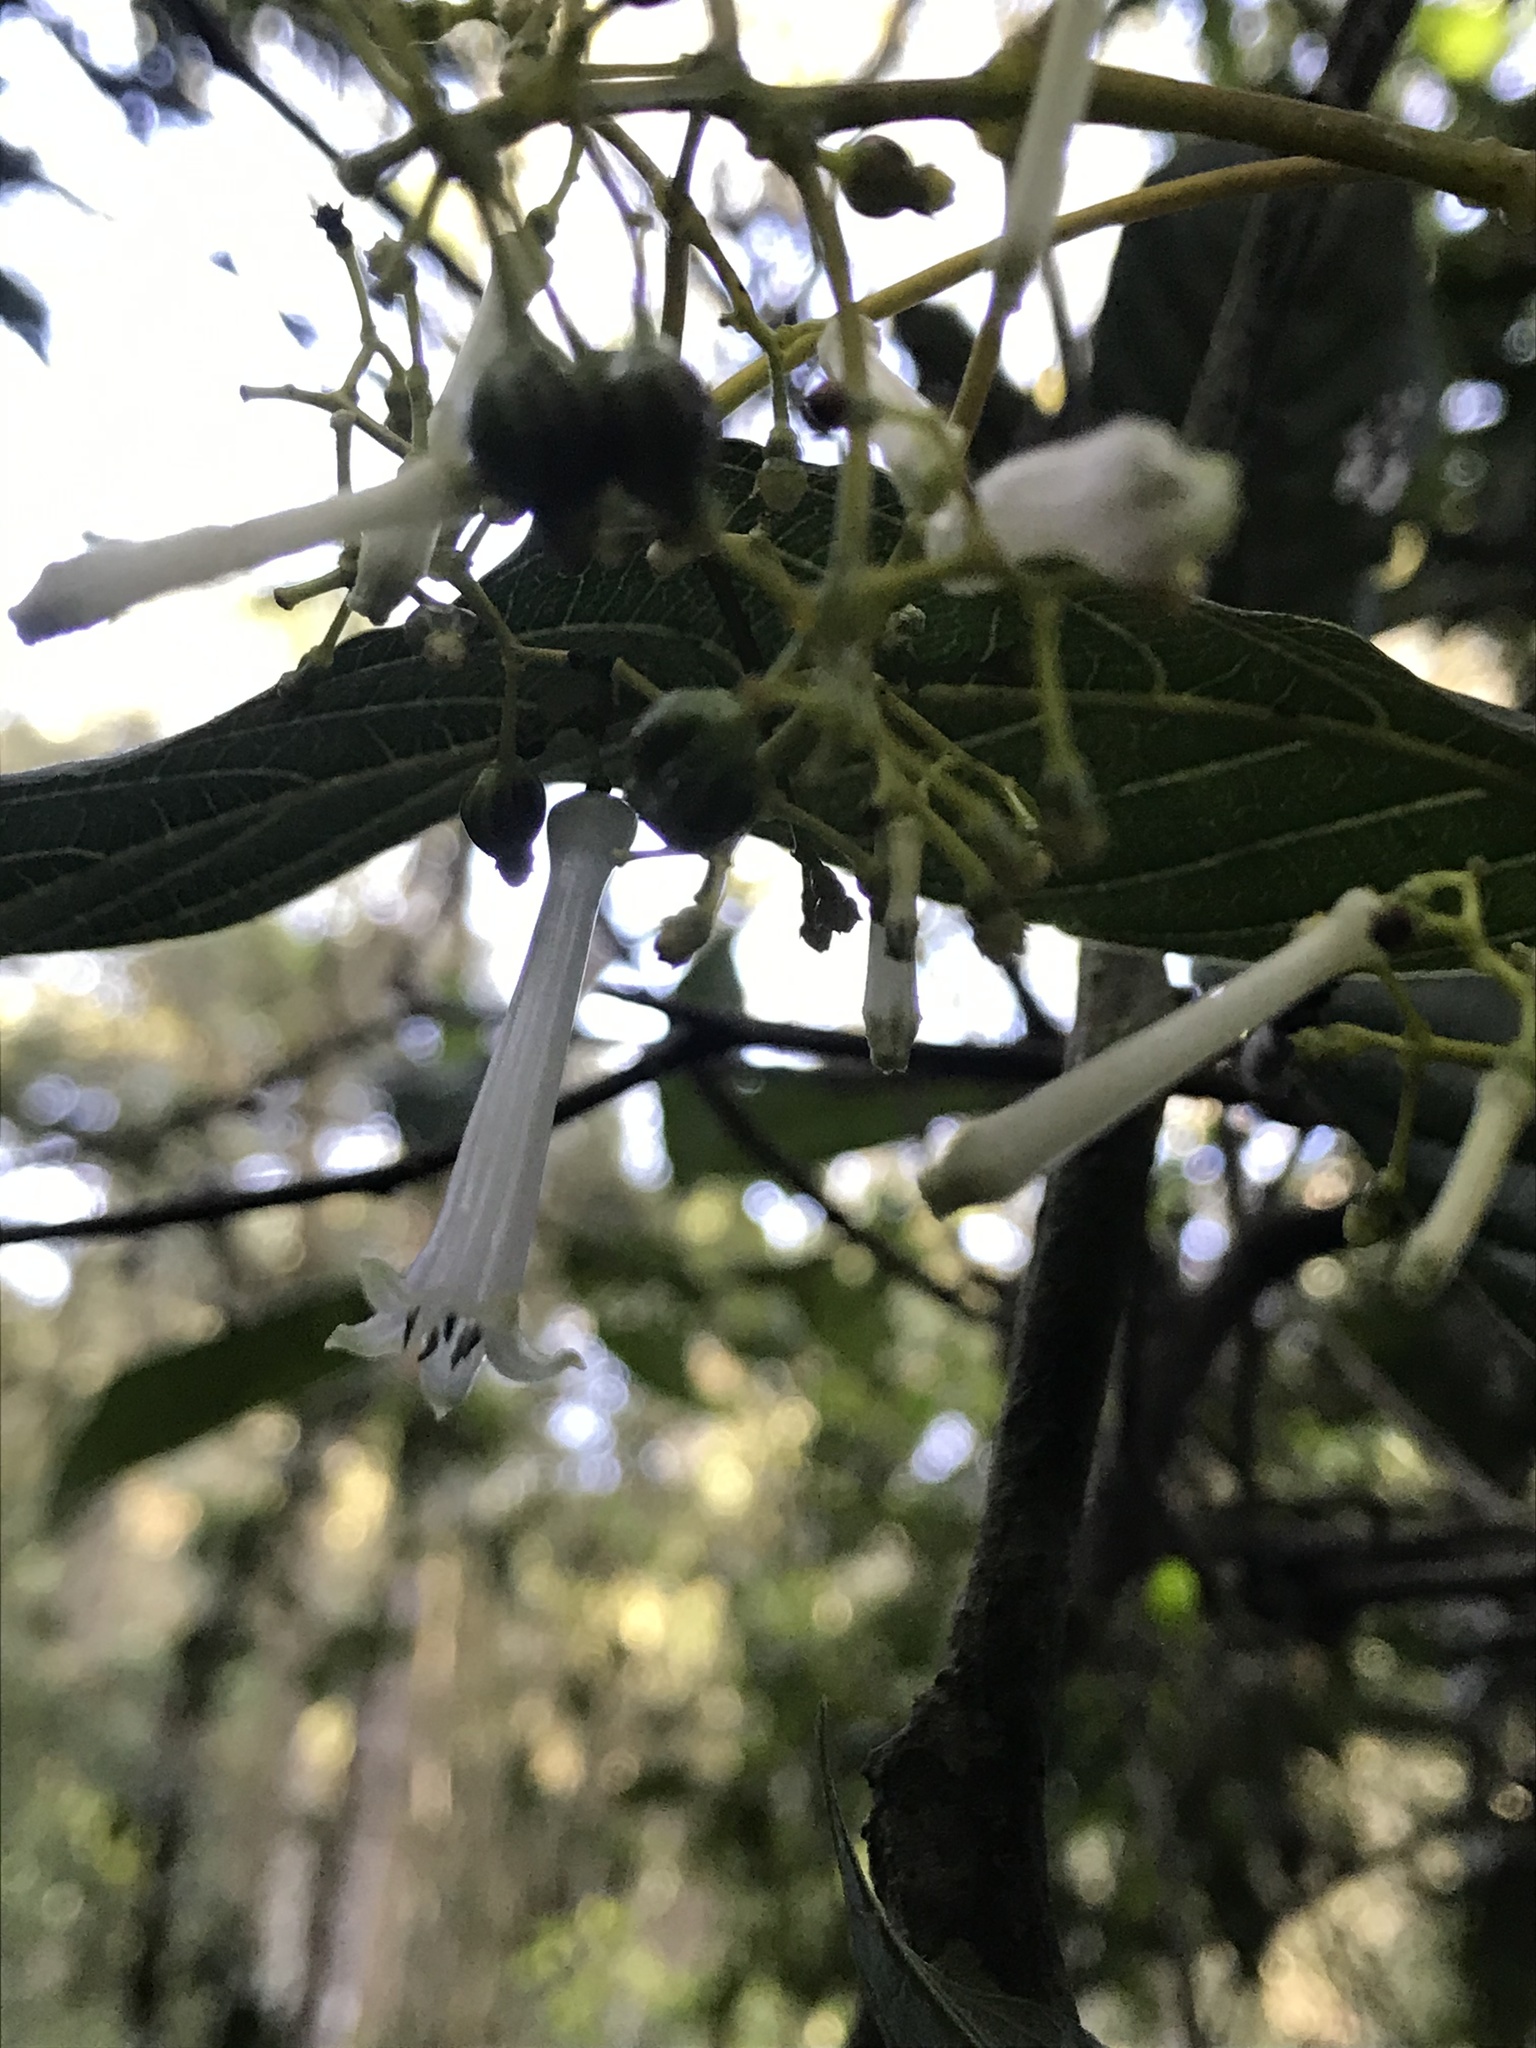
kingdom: Plantae
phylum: Tracheophyta
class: Magnoliopsida
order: Gentianales
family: Rubiaceae
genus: Palicourea
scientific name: Palicourea lineariflora
